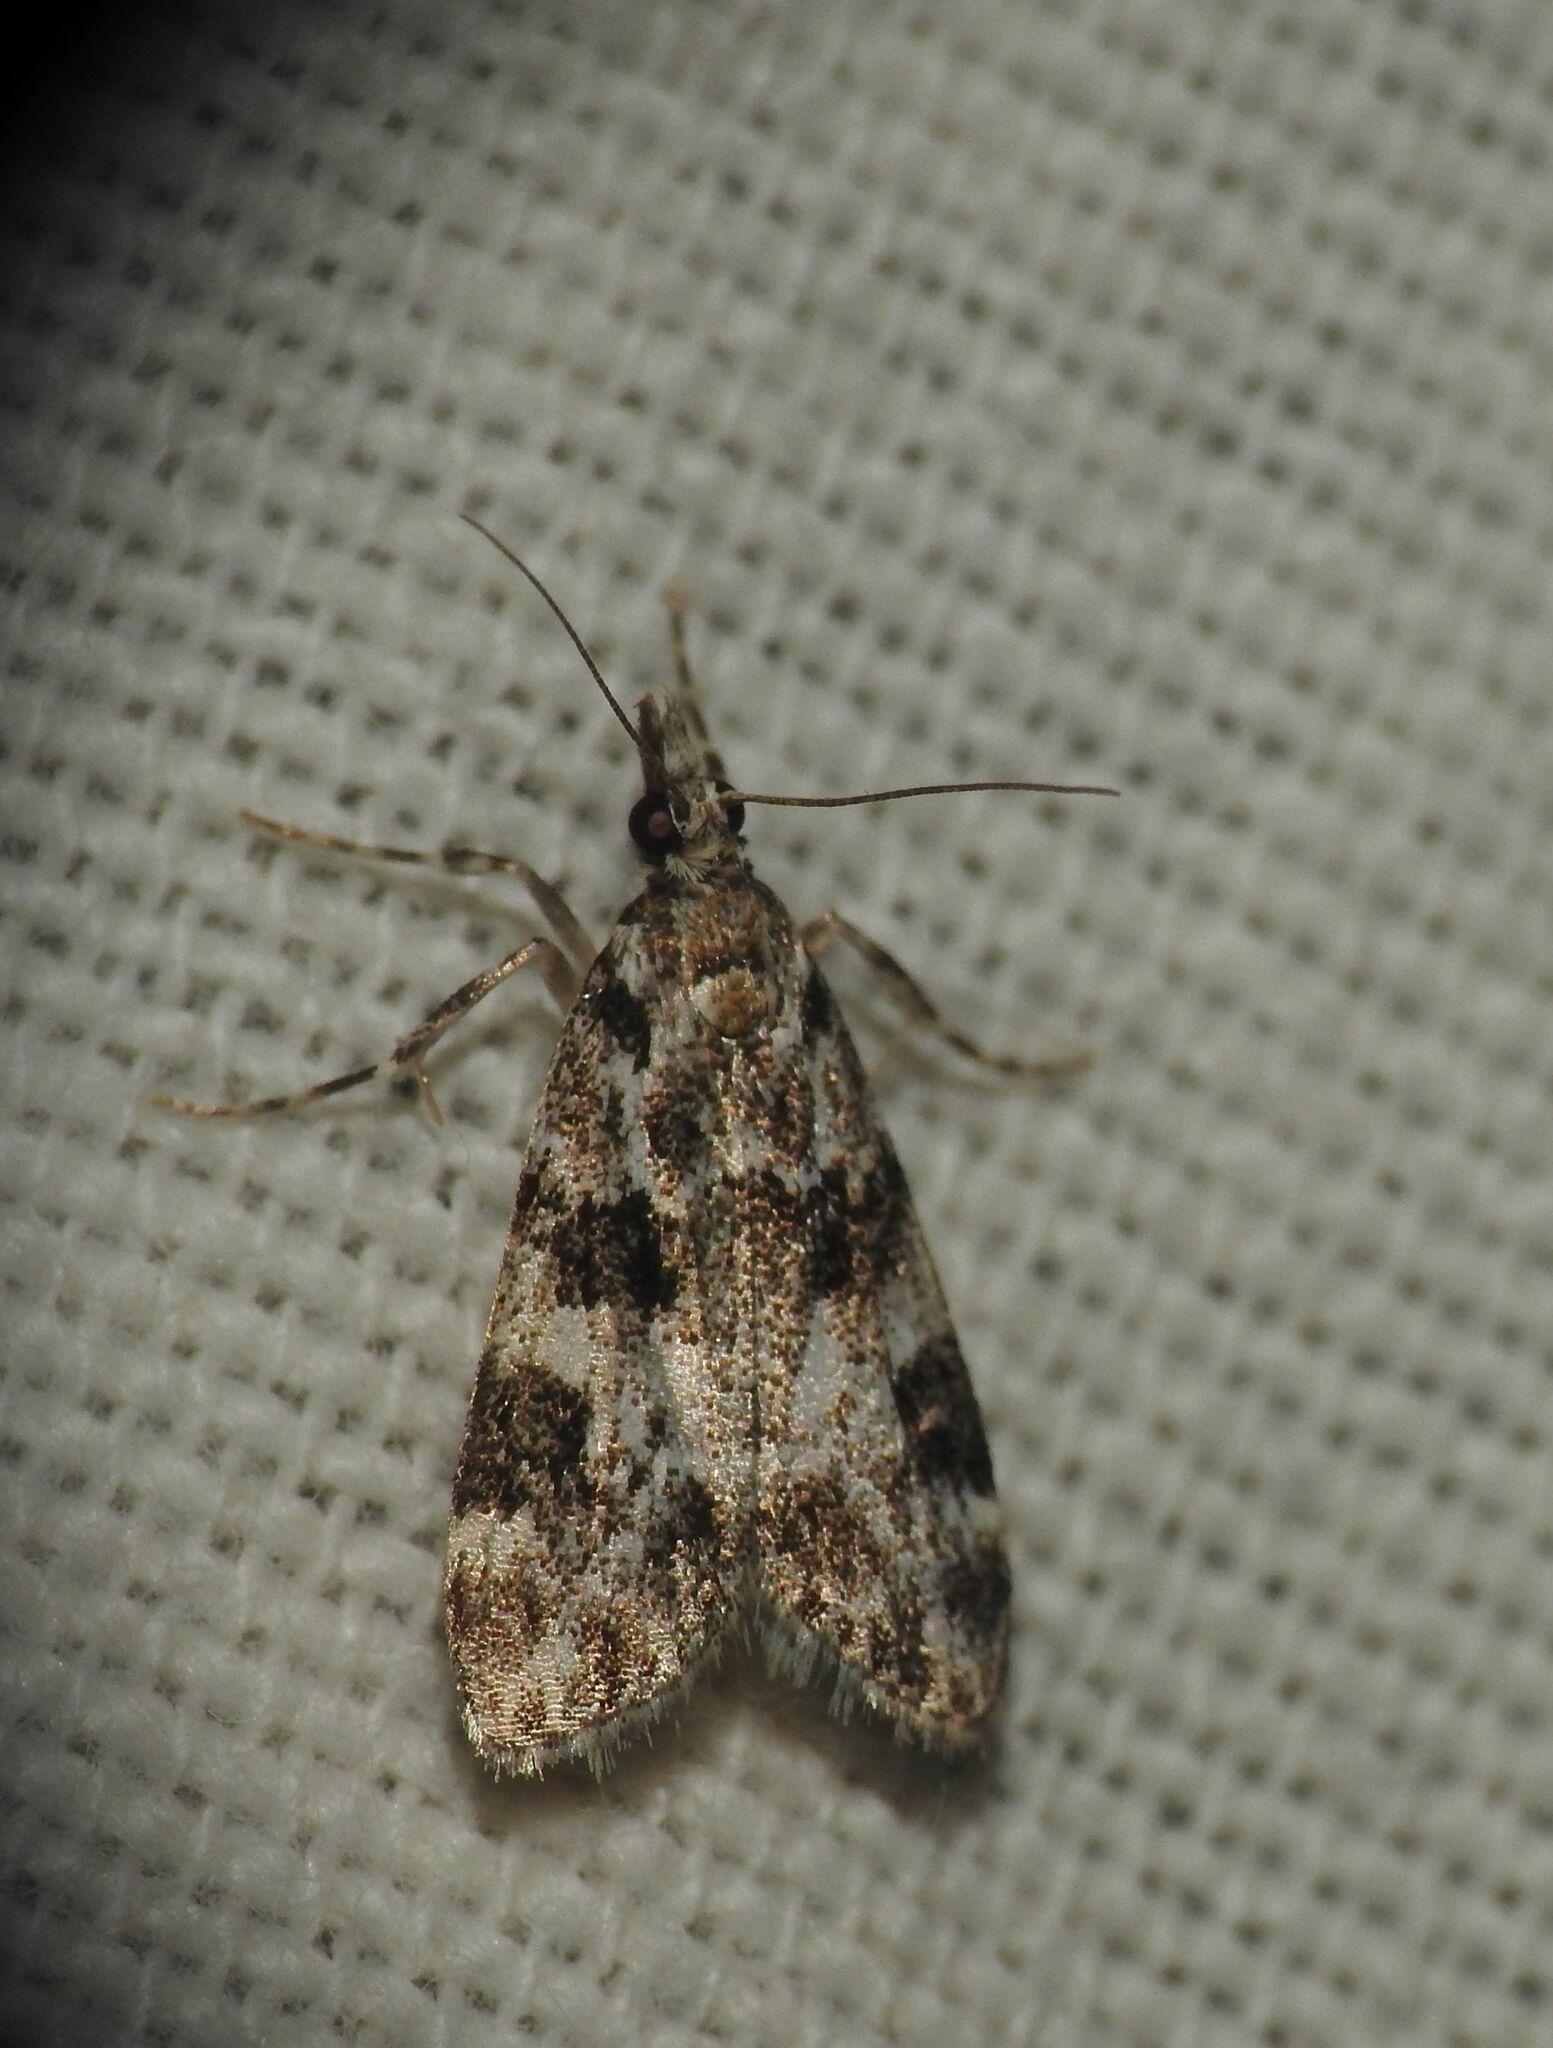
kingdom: Animalia
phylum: Arthropoda
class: Insecta
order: Lepidoptera
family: Crambidae
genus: Eudonia
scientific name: Eudonia delunella
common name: Pied grey
